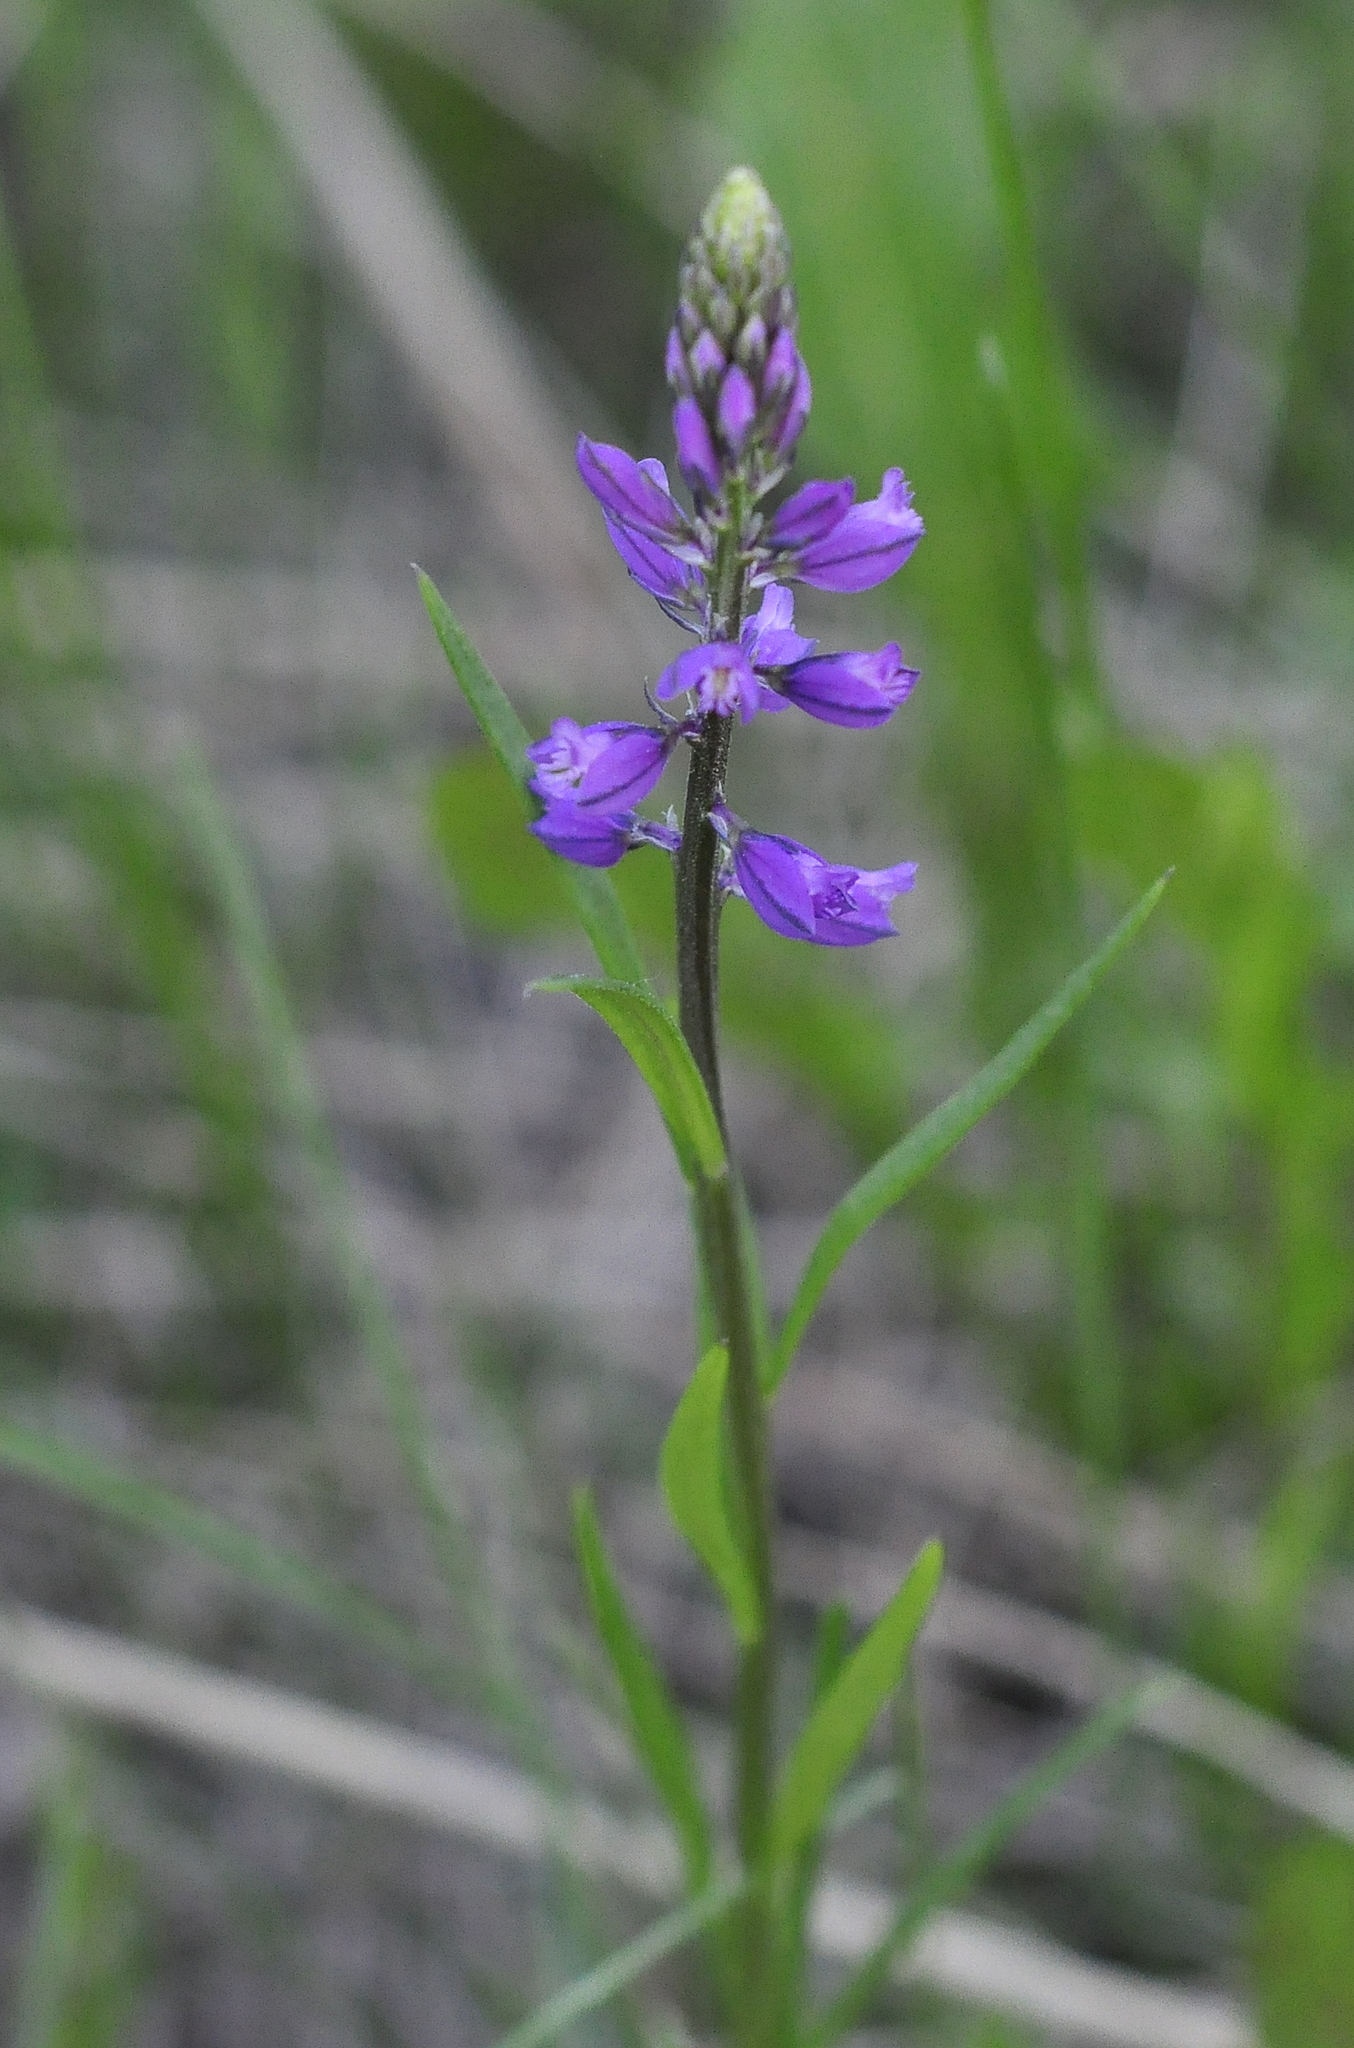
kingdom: Plantae
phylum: Tracheophyta
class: Magnoliopsida
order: Fabales
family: Polygalaceae
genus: Polygala
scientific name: Polygala comosa
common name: Tufted milkwort
